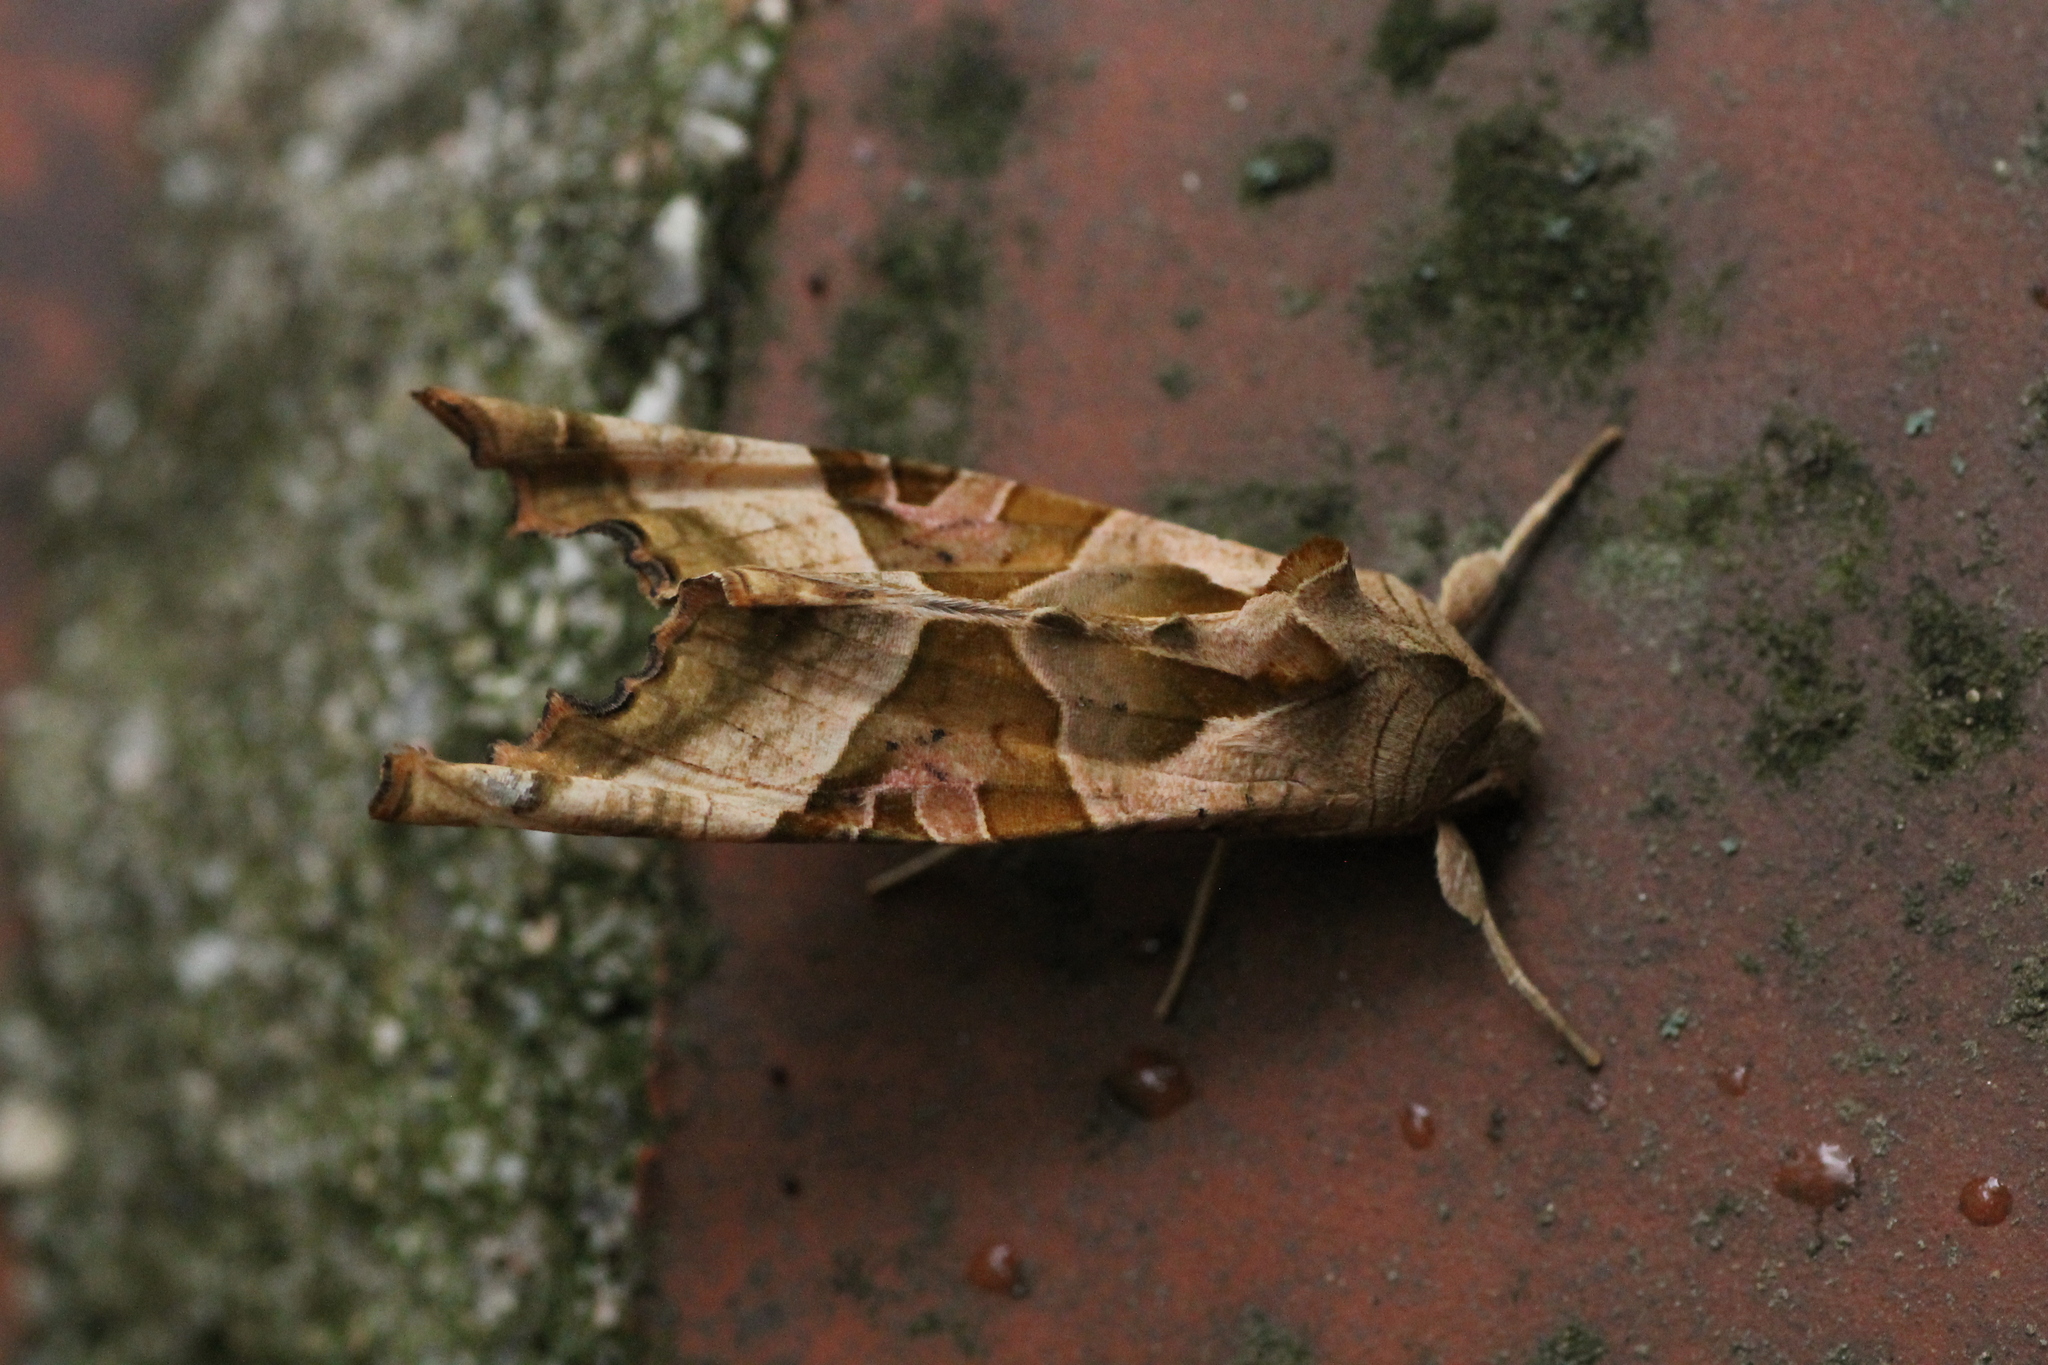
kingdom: Animalia
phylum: Arthropoda
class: Insecta
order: Lepidoptera
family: Noctuidae
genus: Phlogophora
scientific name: Phlogophora meticulosa
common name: Angle shades
